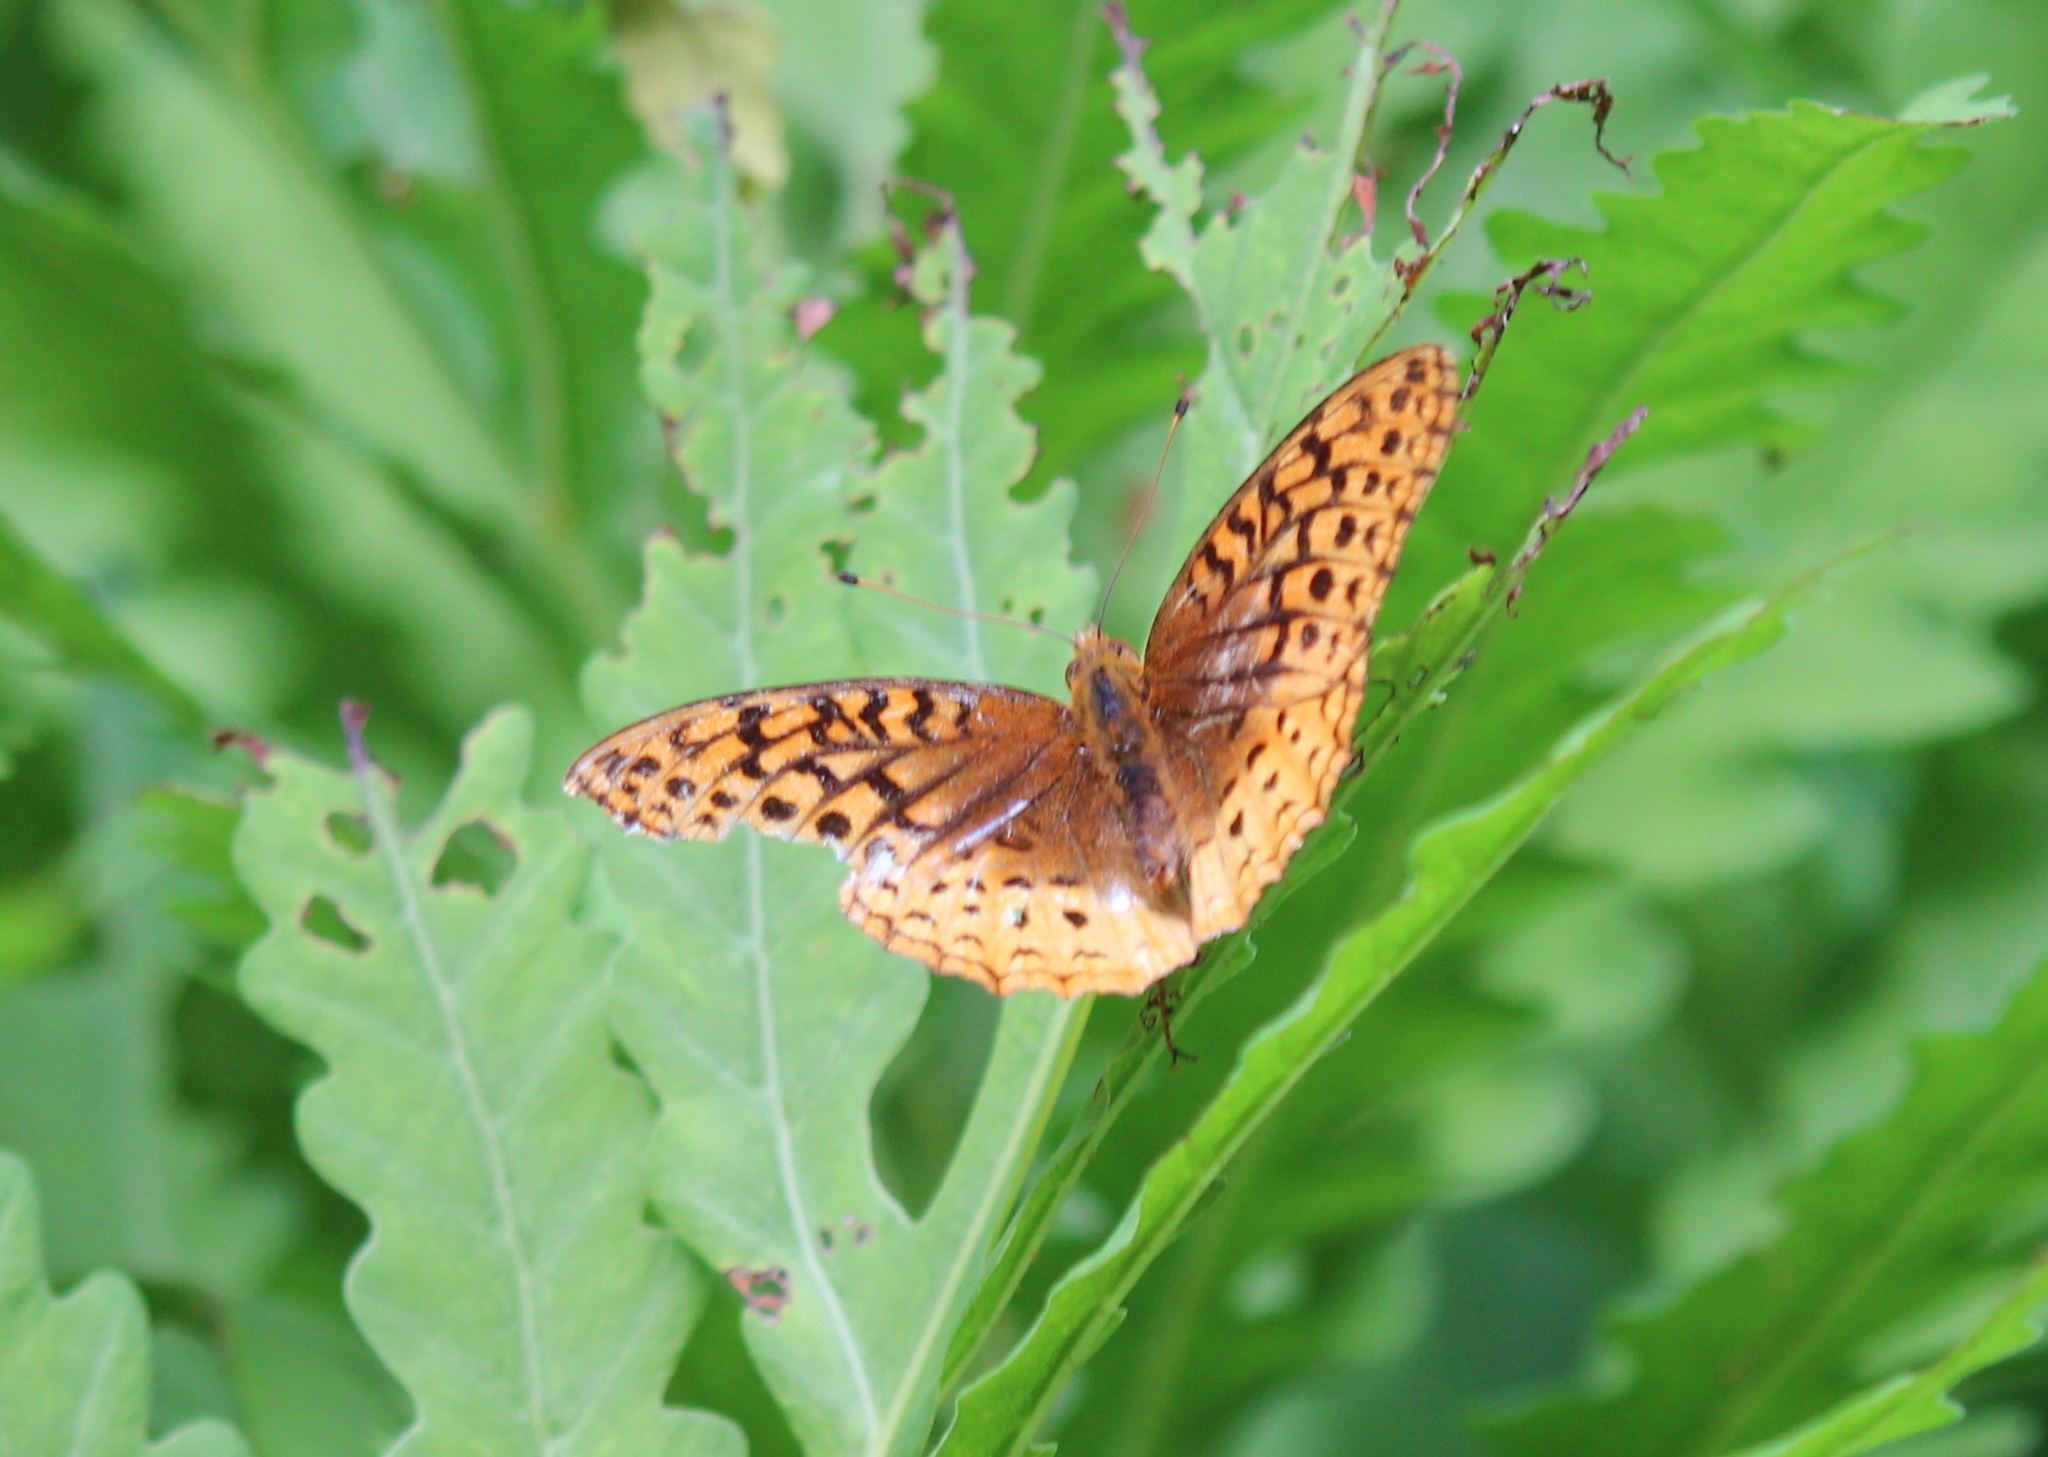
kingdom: Animalia
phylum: Arthropoda
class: Insecta
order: Lepidoptera
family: Nymphalidae
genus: Speyeria
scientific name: Speyeria cybele
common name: Great spangled fritillary
